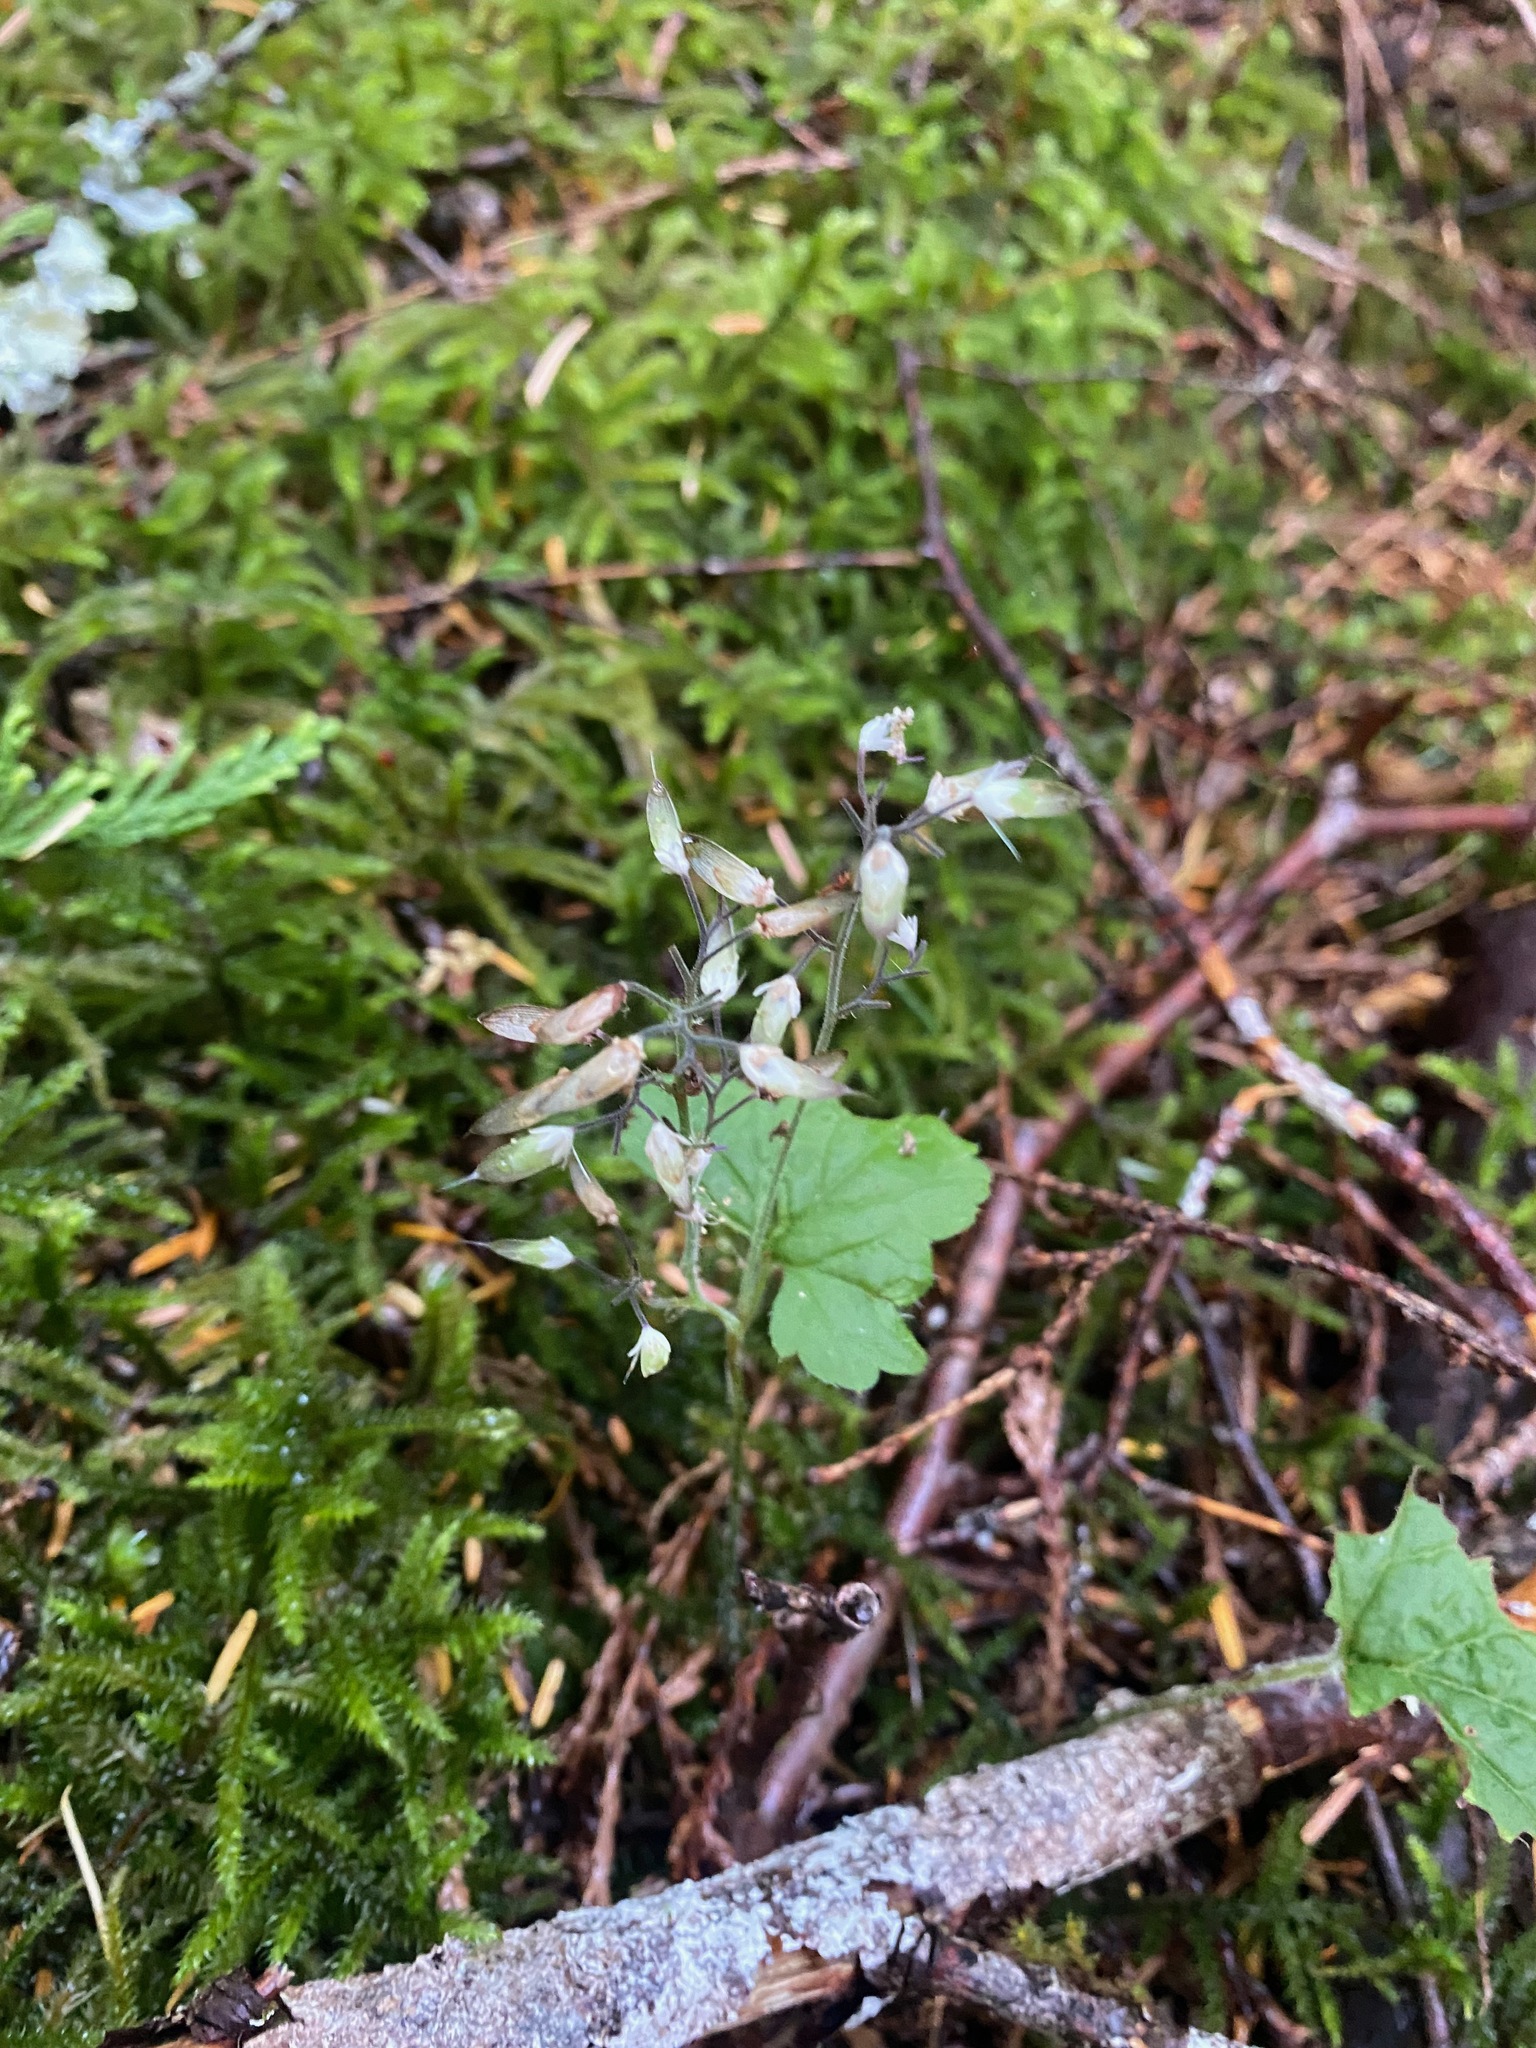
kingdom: Plantae
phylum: Tracheophyta
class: Magnoliopsida
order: Saxifragales
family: Saxifragaceae
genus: Tiarella
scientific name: Tiarella trifoliata
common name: Sugar-scoop
